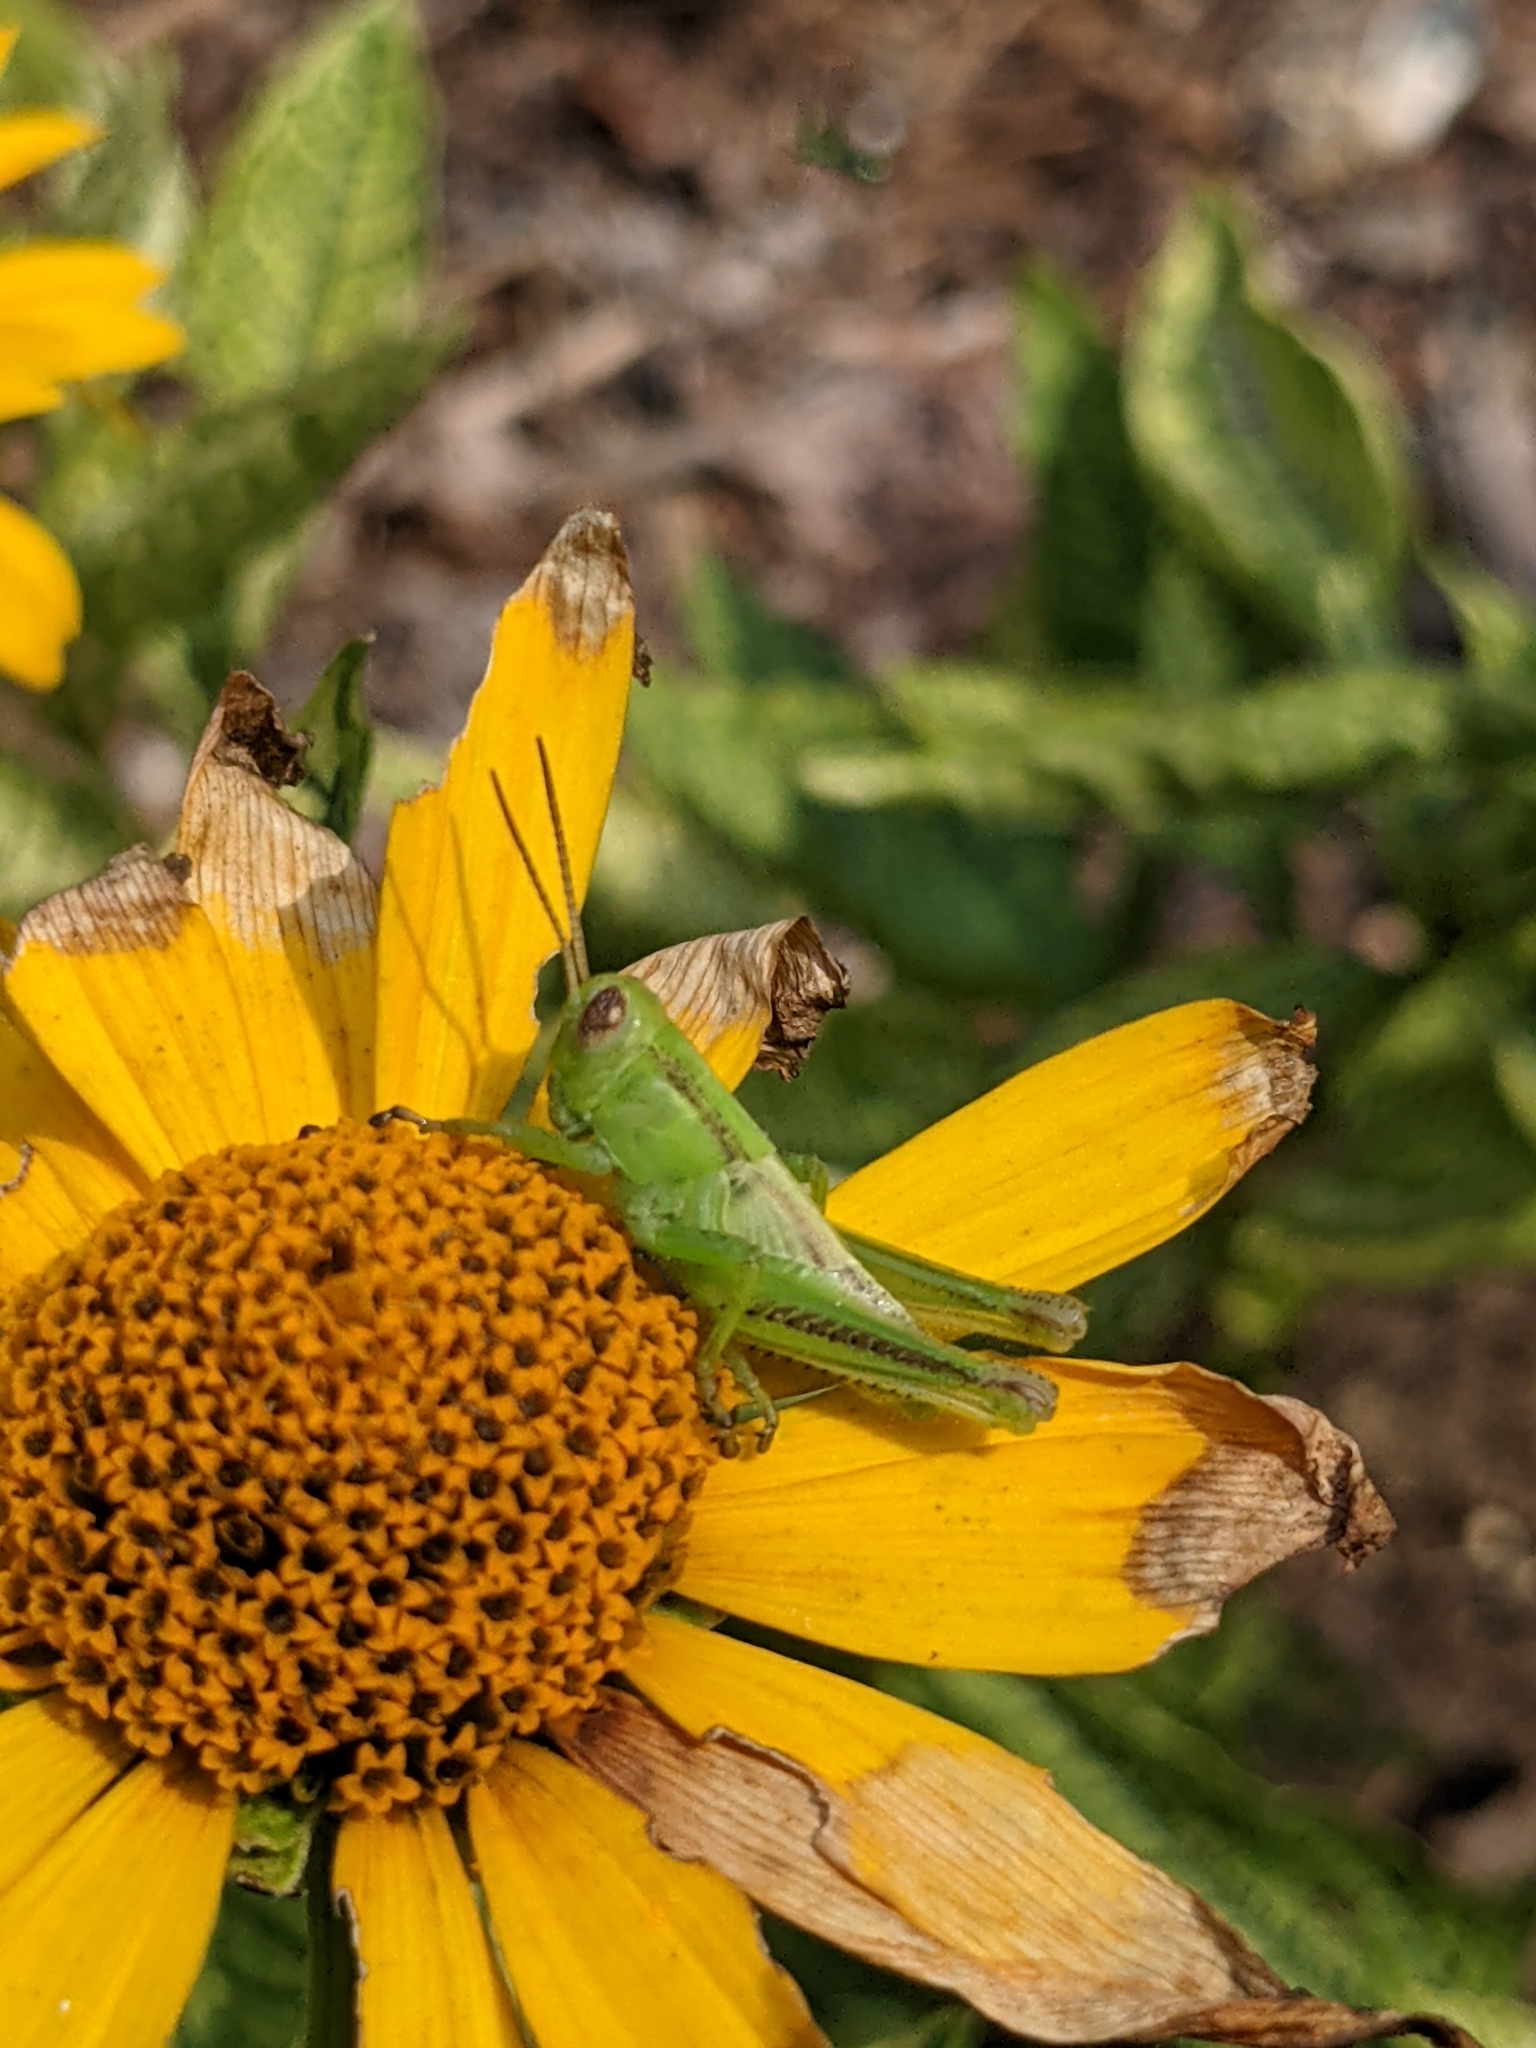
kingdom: Animalia
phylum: Arthropoda
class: Insecta
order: Orthoptera
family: Acrididae
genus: Melanoplus
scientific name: Melanoplus bivittatus
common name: Two-striped grasshopper
